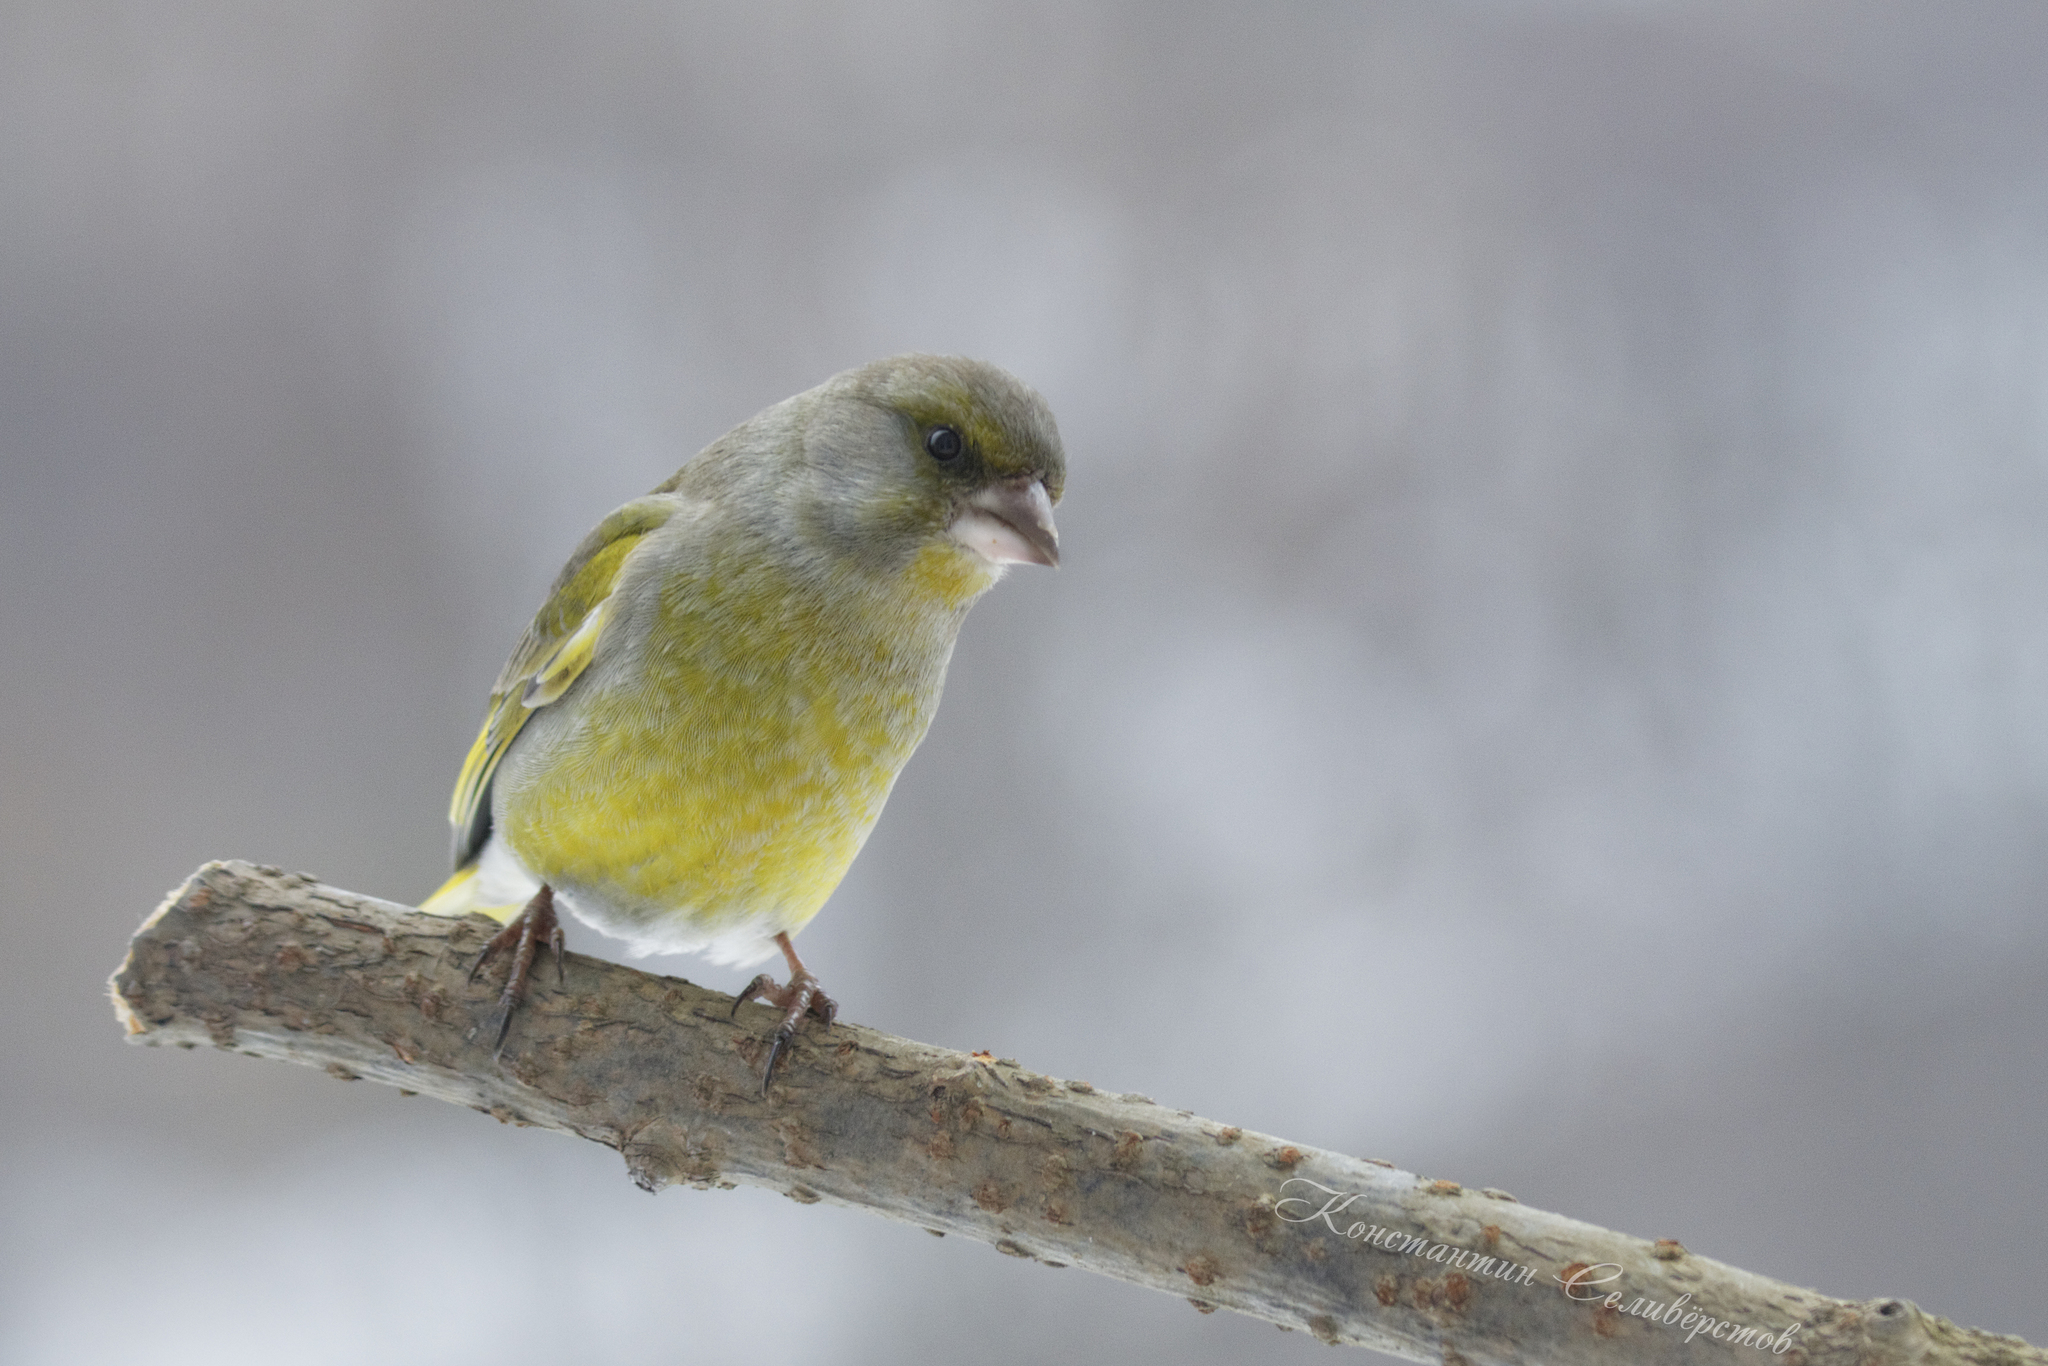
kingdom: Plantae
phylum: Tracheophyta
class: Liliopsida
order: Poales
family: Poaceae
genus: Chloris
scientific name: Chloris chloris
